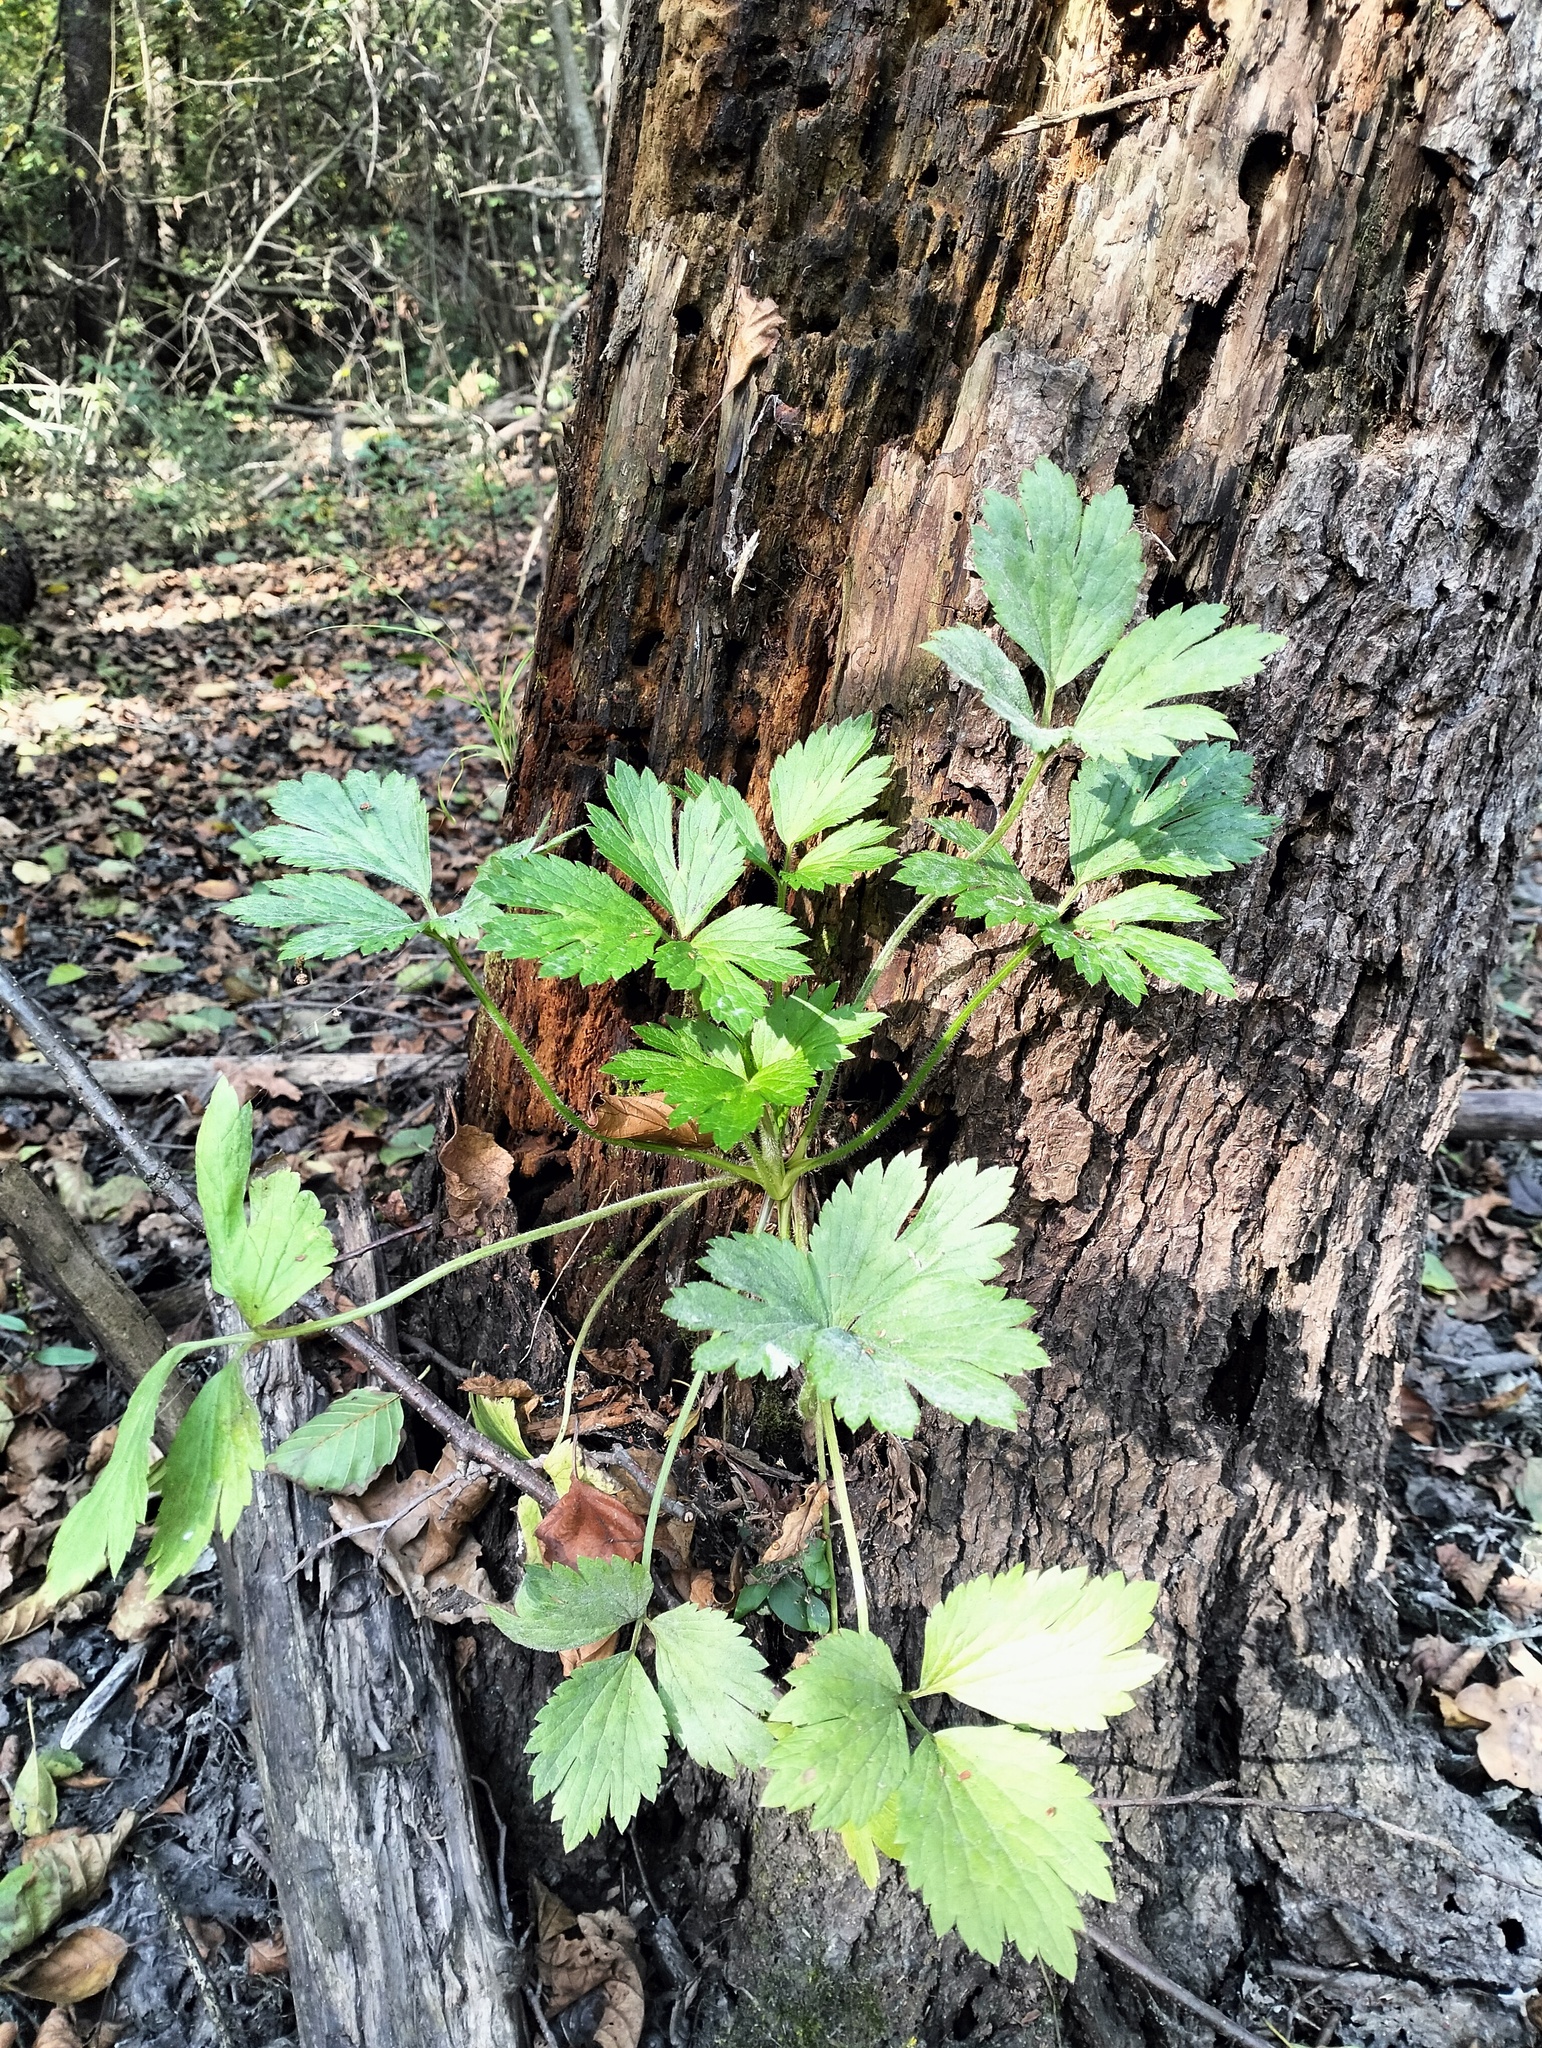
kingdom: Plantae
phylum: Tracheophyta
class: Magnoliopsida
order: Ranunculales
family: Ranunculaceae
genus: Ranunculus
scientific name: Ranunculus repens
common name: Creeping buttercup
